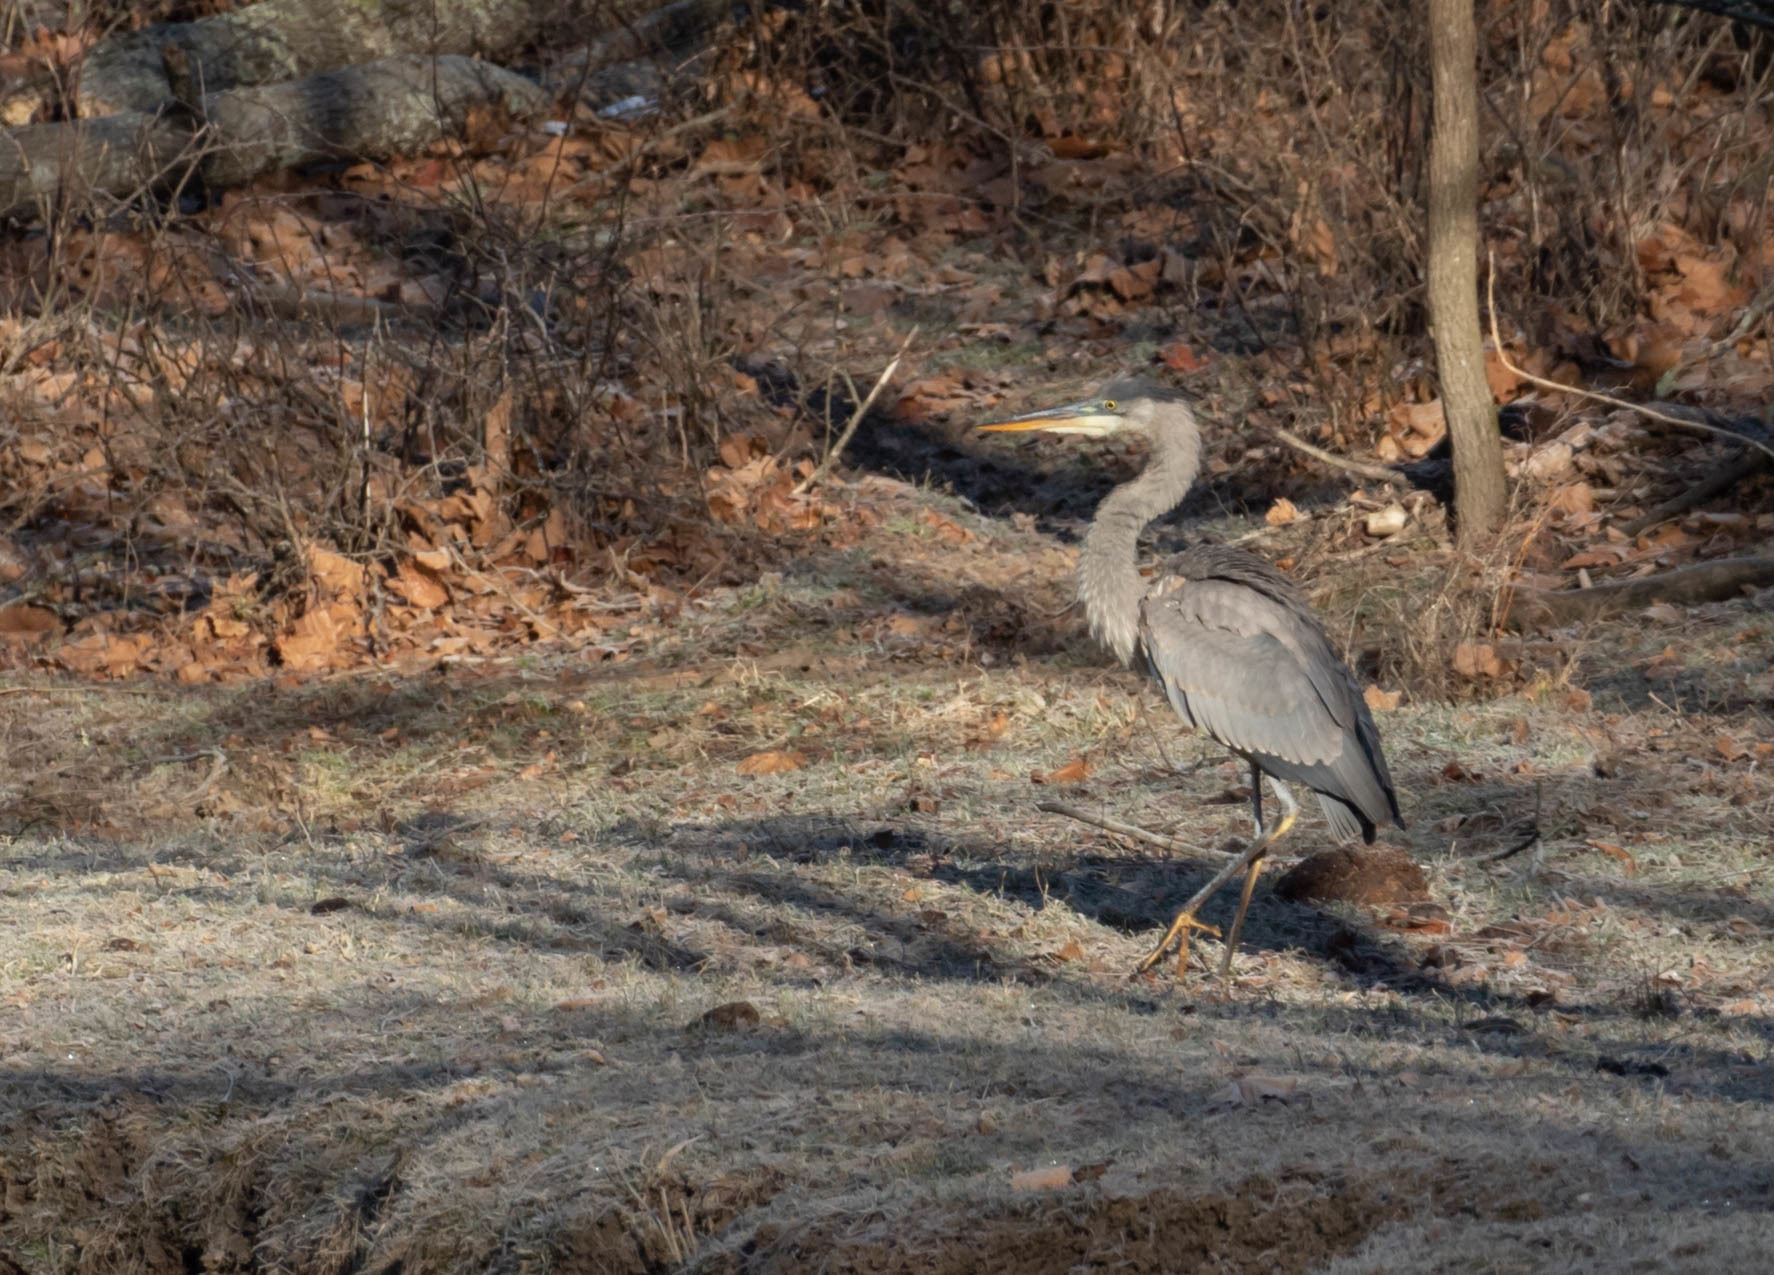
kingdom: Animalia
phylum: Chordata
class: Aves
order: Pelecaniformes
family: Ardeidae
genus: Ardea
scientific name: Ardea herodias
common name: Great blue heron
